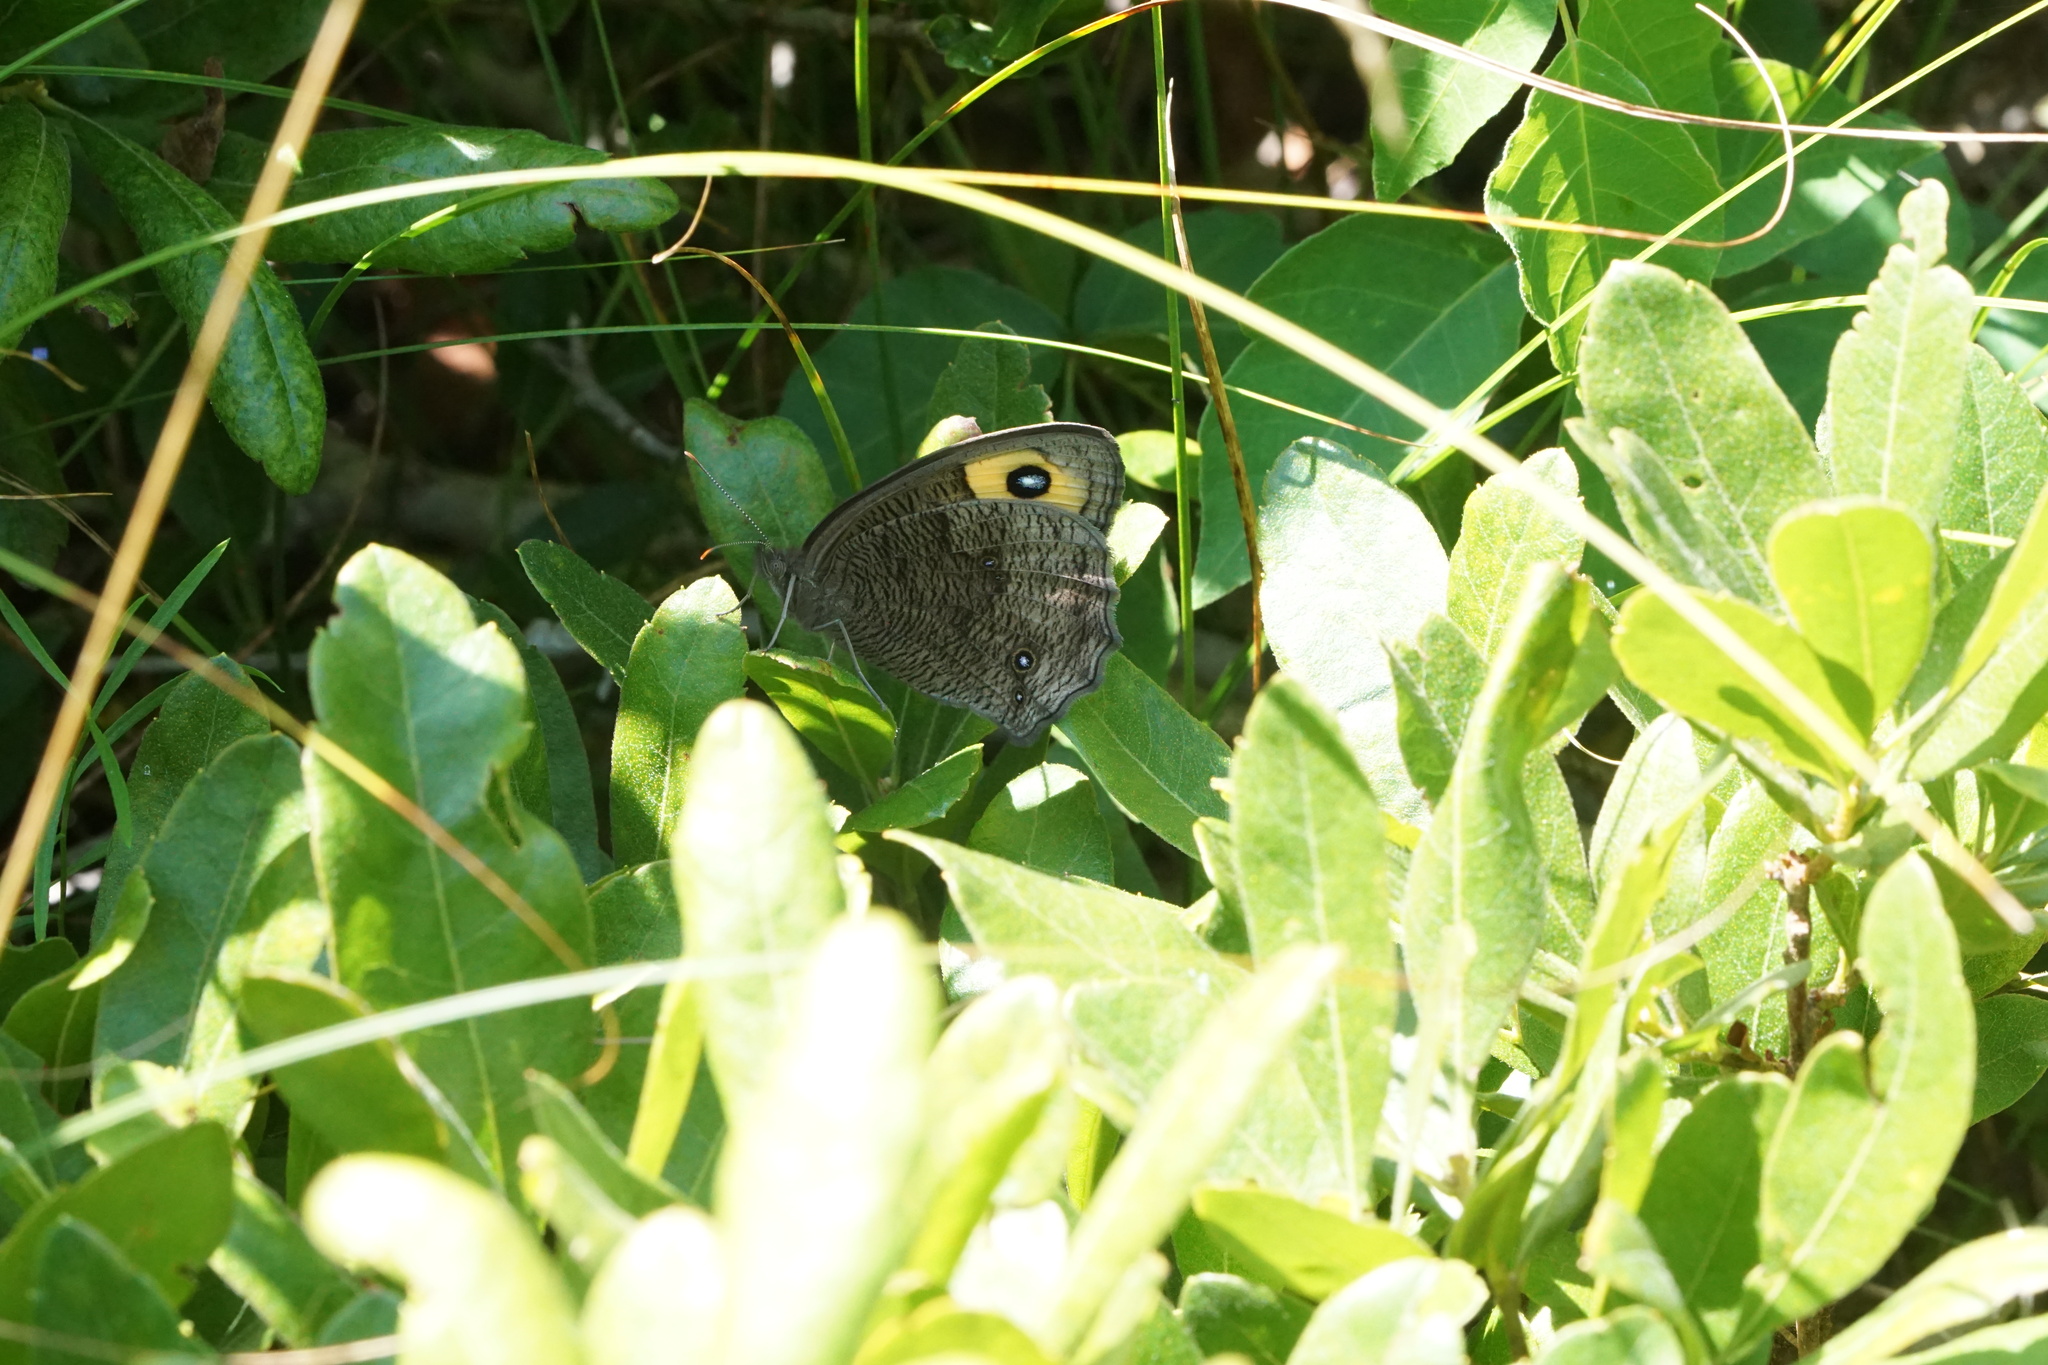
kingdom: Animalia
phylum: Arthropoda
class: Insecta
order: Lepidoptera
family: Nymphalidae
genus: Cercyonis
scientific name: Cercyonis pegala
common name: Common wood-nymph
